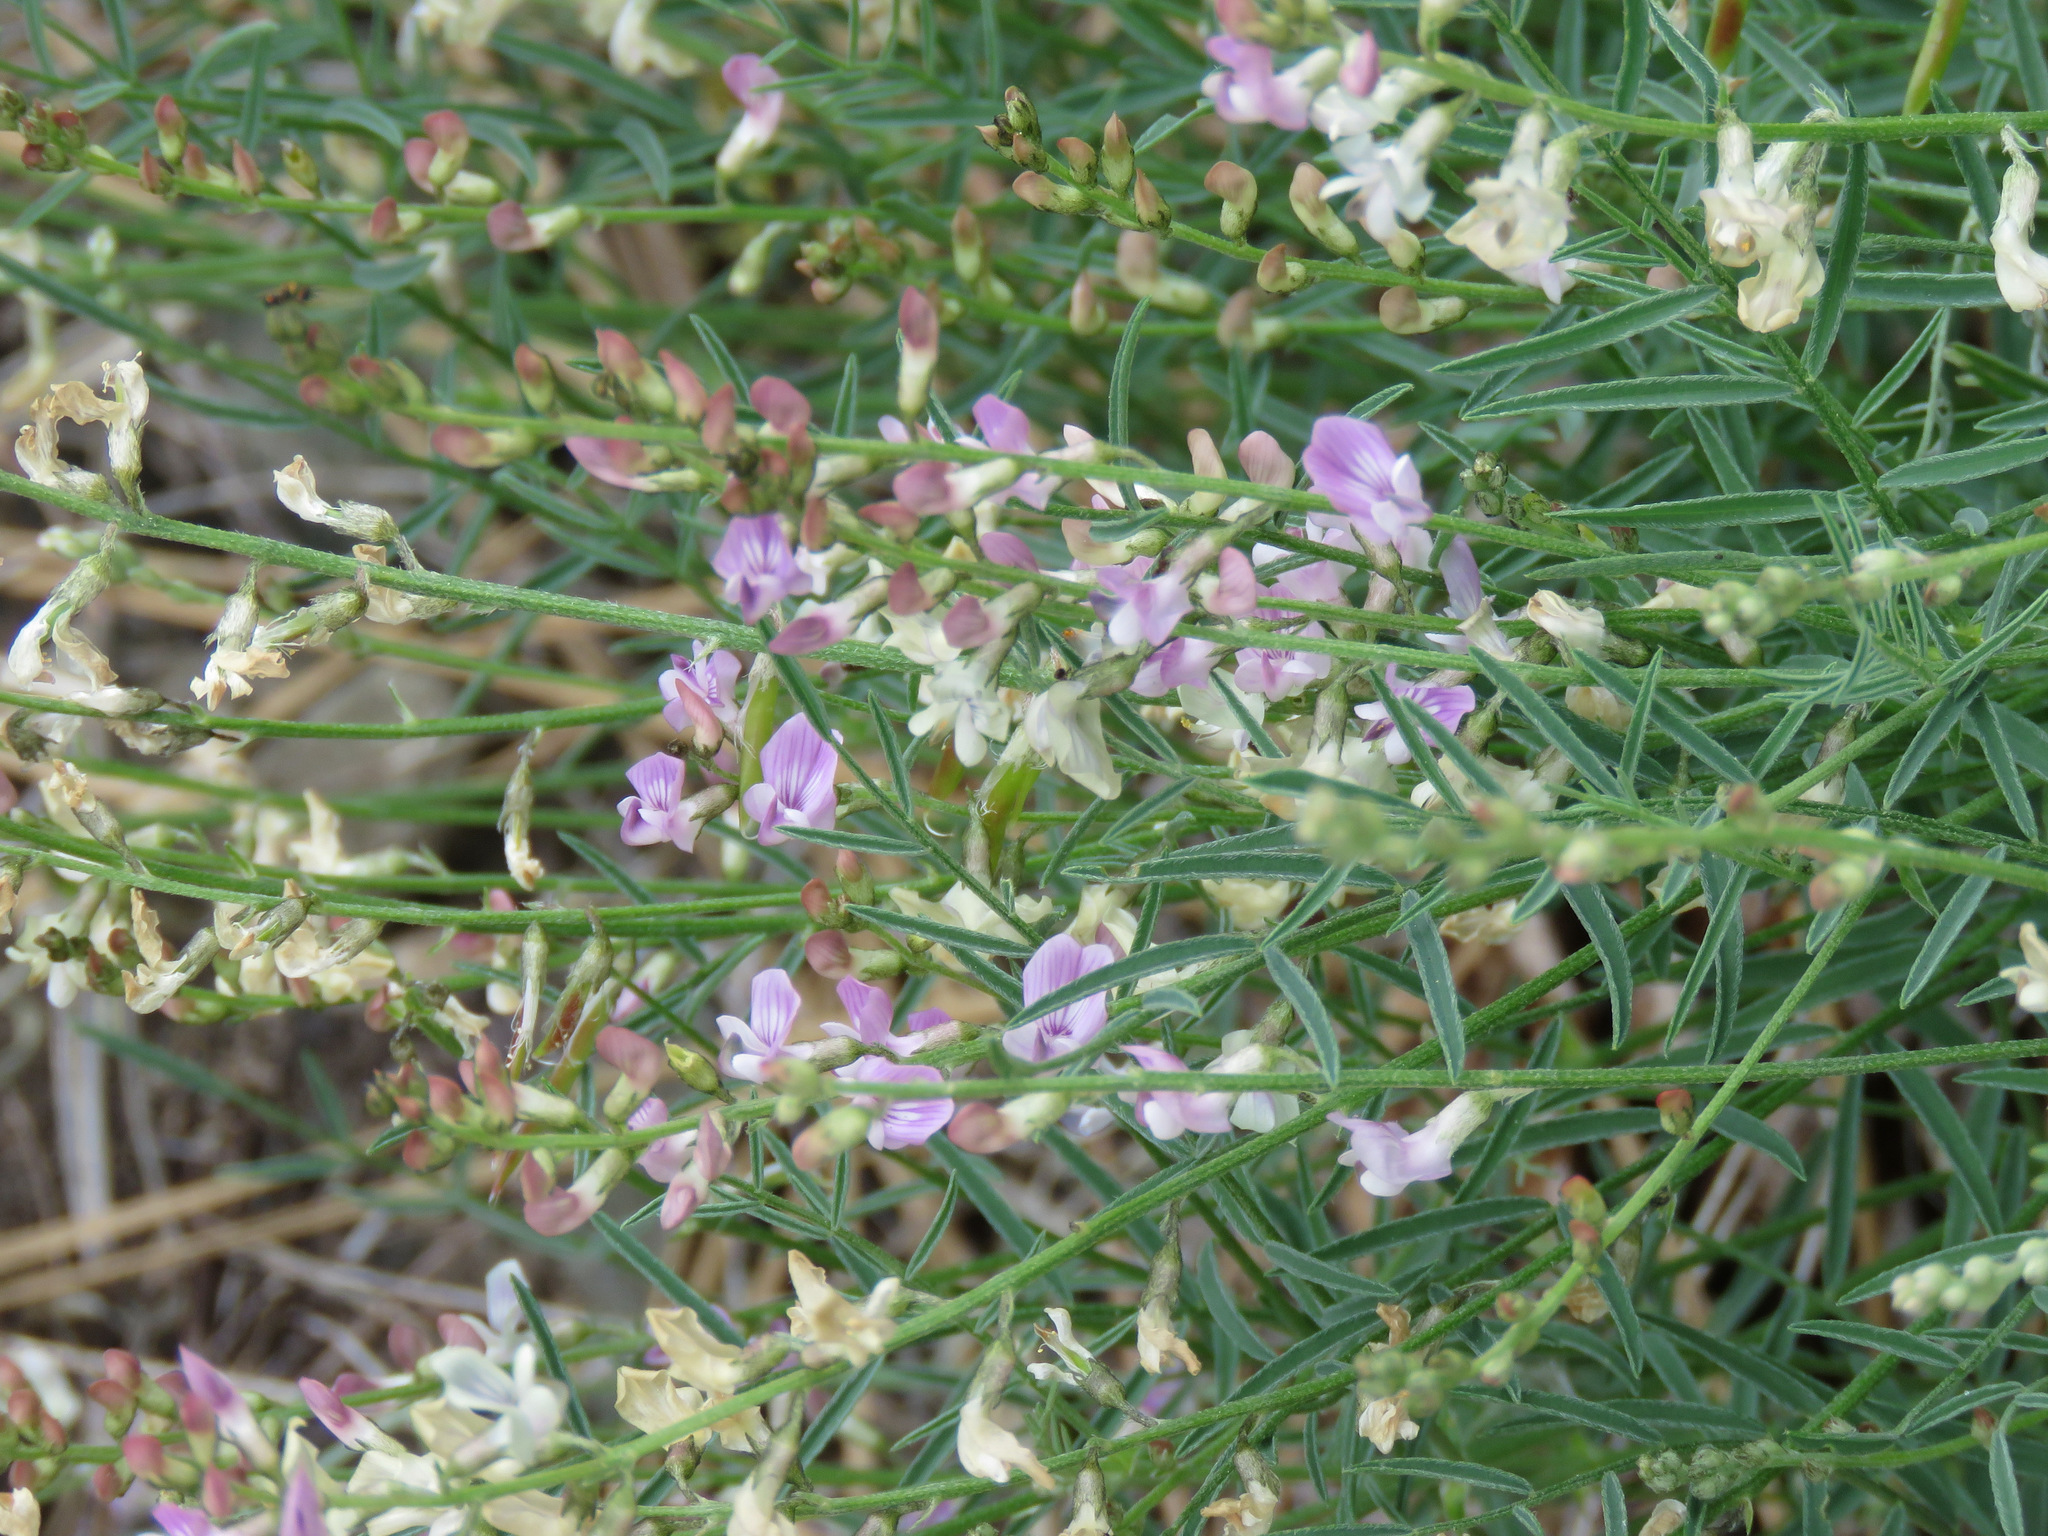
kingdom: Plantae
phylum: Tracheophyta
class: Magnoliopsida
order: Fabales
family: Fabaceae
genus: Astragalus
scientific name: Astragalus miser
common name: Timber milkvetch
